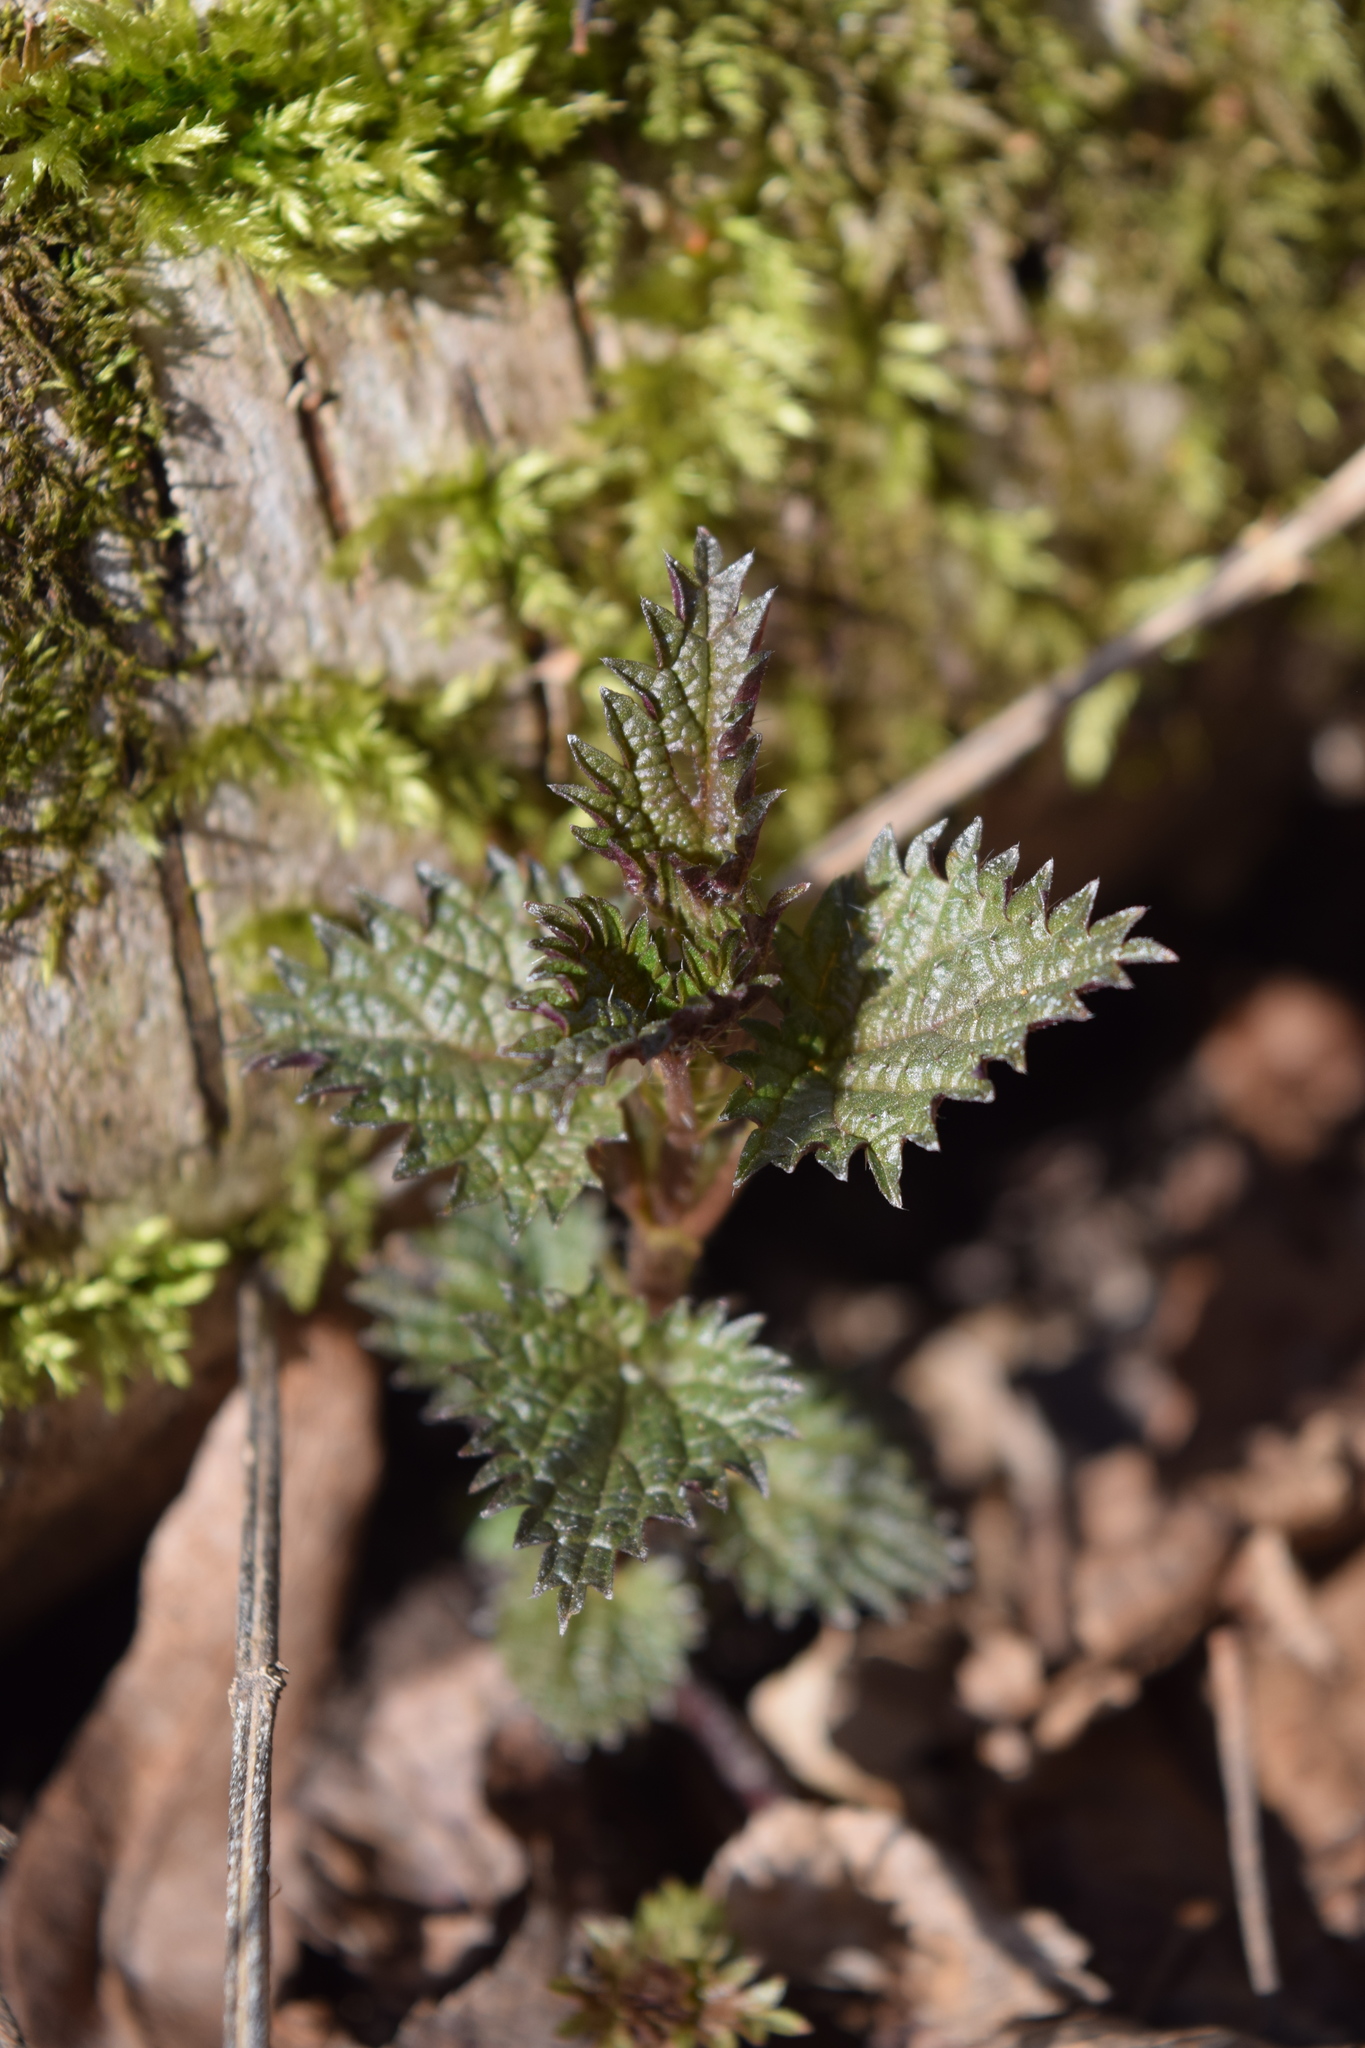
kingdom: Plantae
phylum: Tracheophyta
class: Magnoliopsida
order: Rosales
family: Urticaceae
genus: Urtica
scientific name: Urtica dioica
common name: Common nettle
